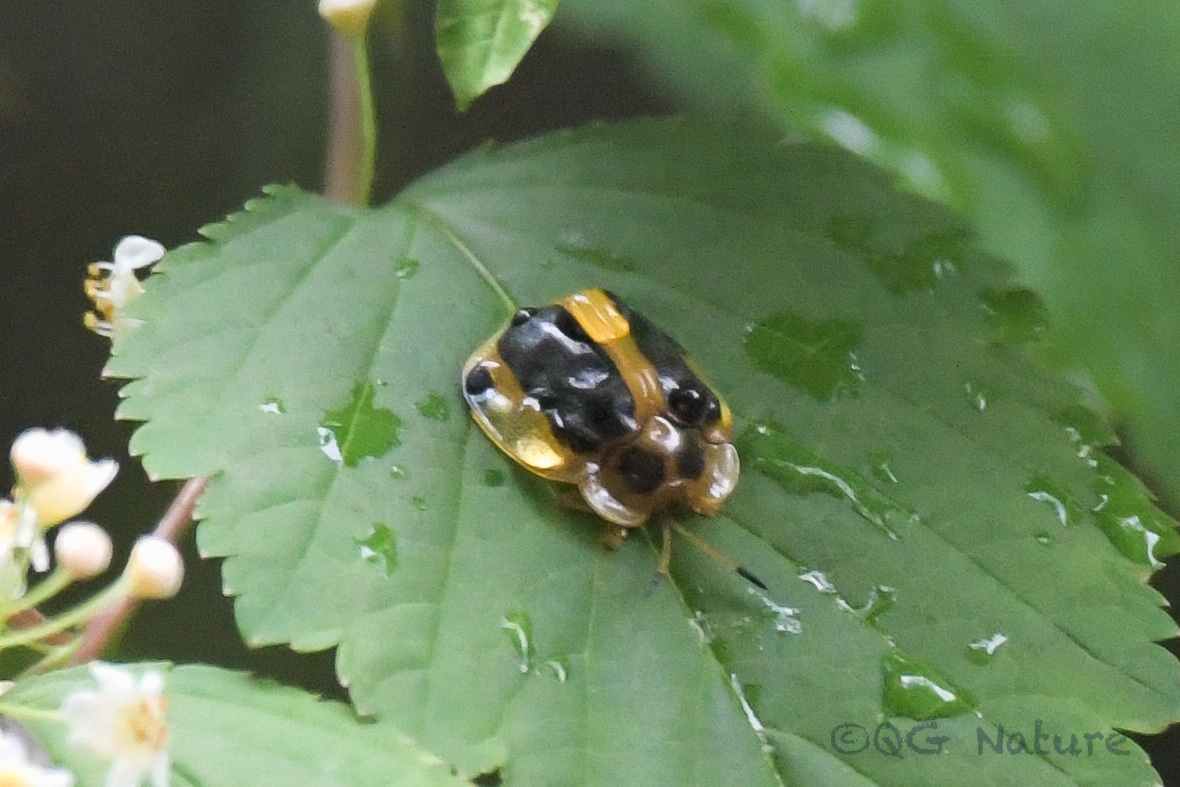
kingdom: Animalia
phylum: Arthropoda
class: Insecta
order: Coleoptera
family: Chrysomelidae
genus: Basiprionota
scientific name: Basiprionota whitei
